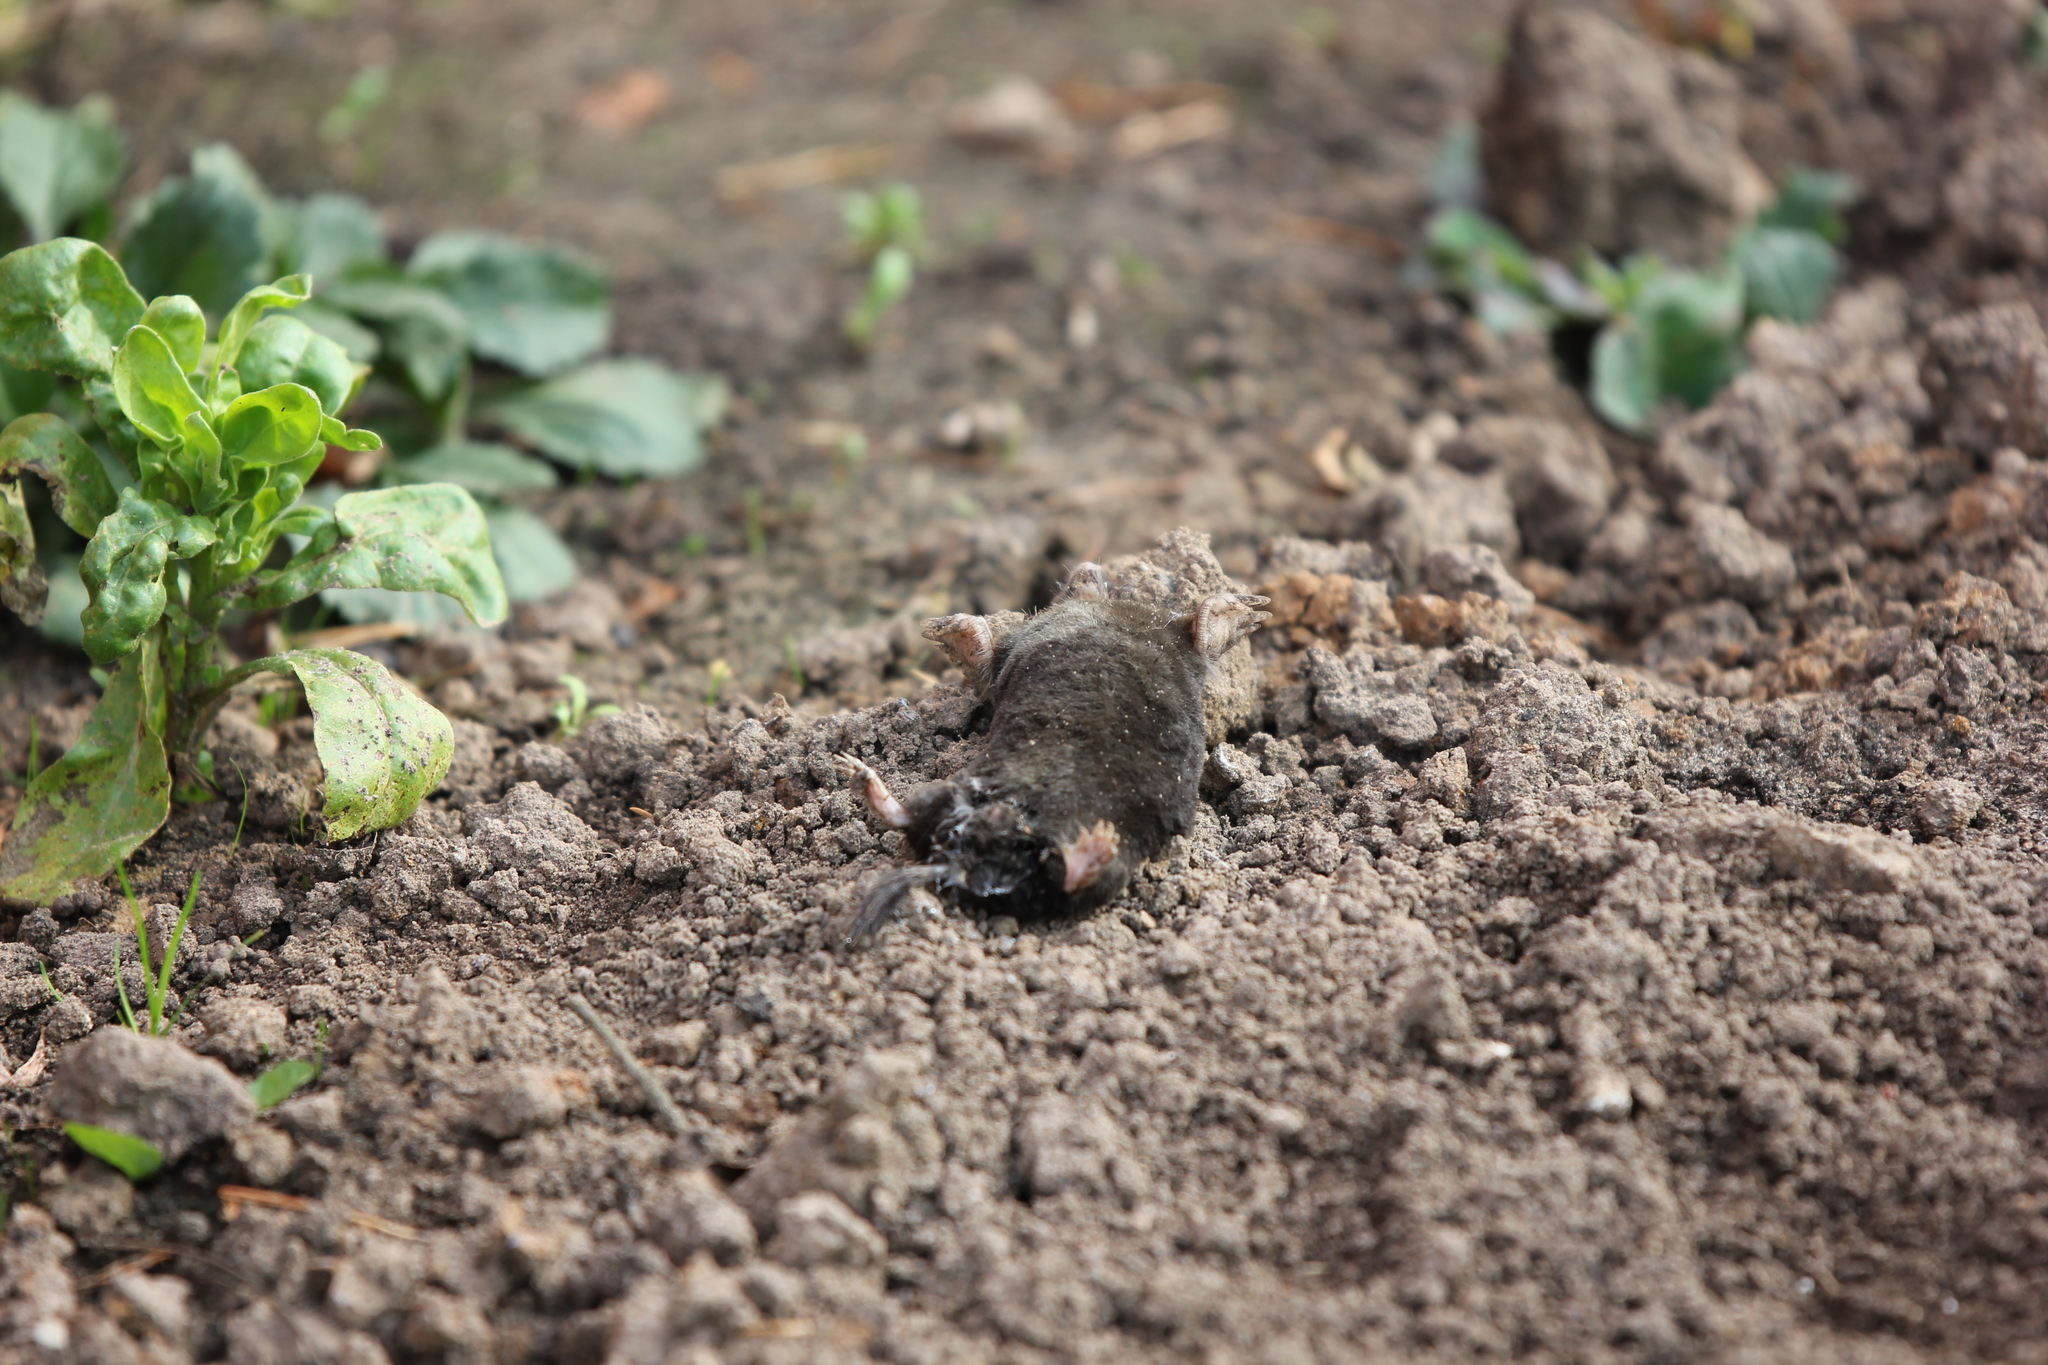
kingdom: Animalia
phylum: Chordata
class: Mammalia
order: Soricomorpha
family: Talpidae
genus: Talpa
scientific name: Talpa europaea
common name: European mole
